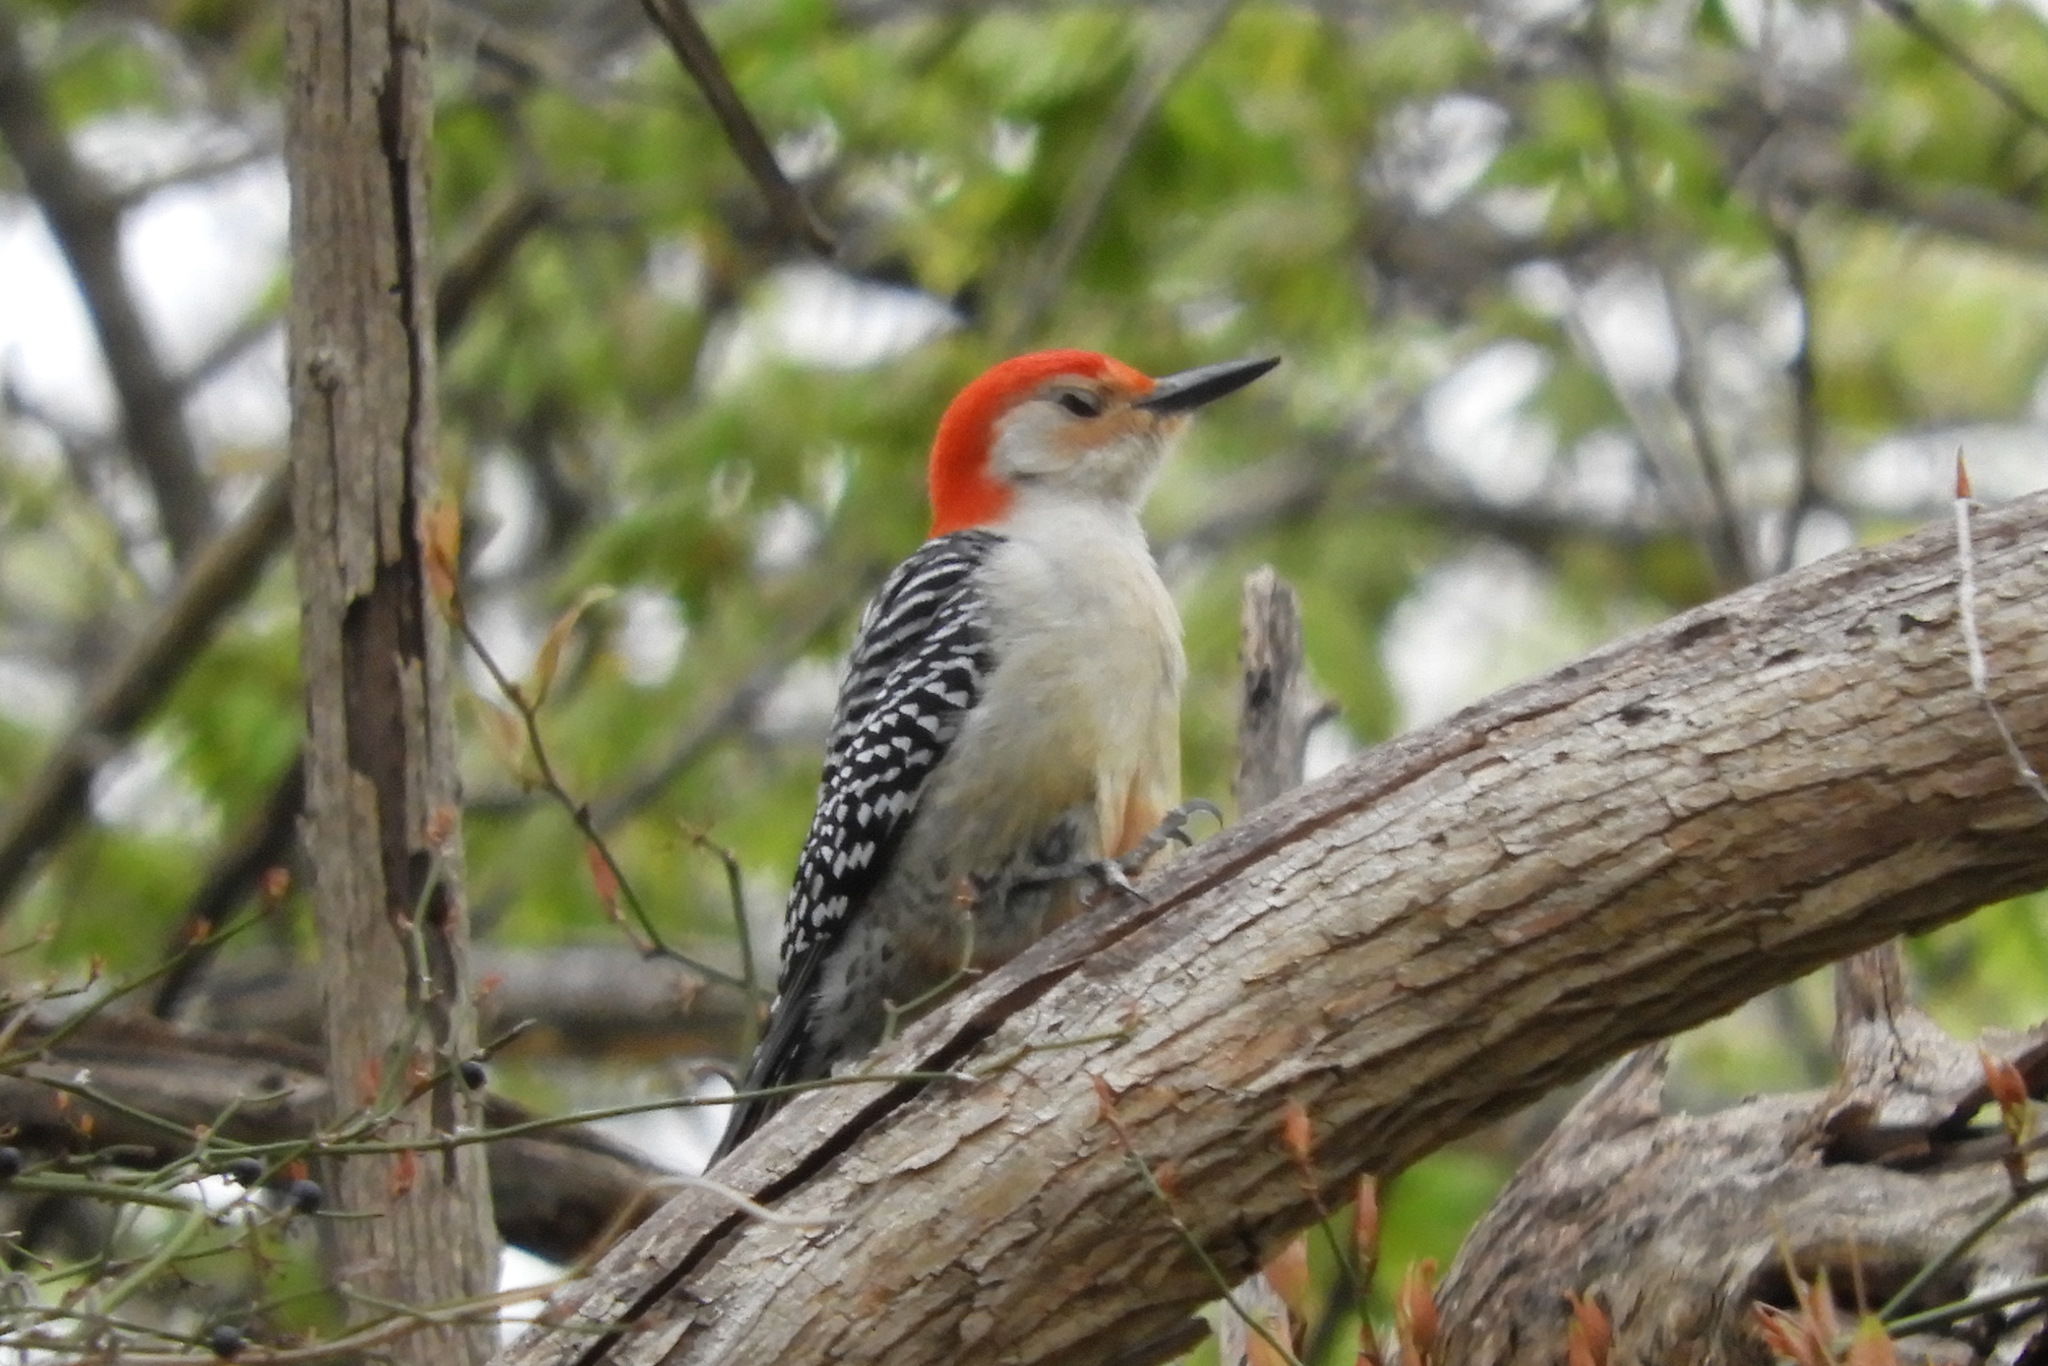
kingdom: Animalia
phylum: Chordata
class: Aves
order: Piciformes
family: Picidae
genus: Melanerpes
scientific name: Melanerpes carolinus
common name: Red-bellied woodpecker
